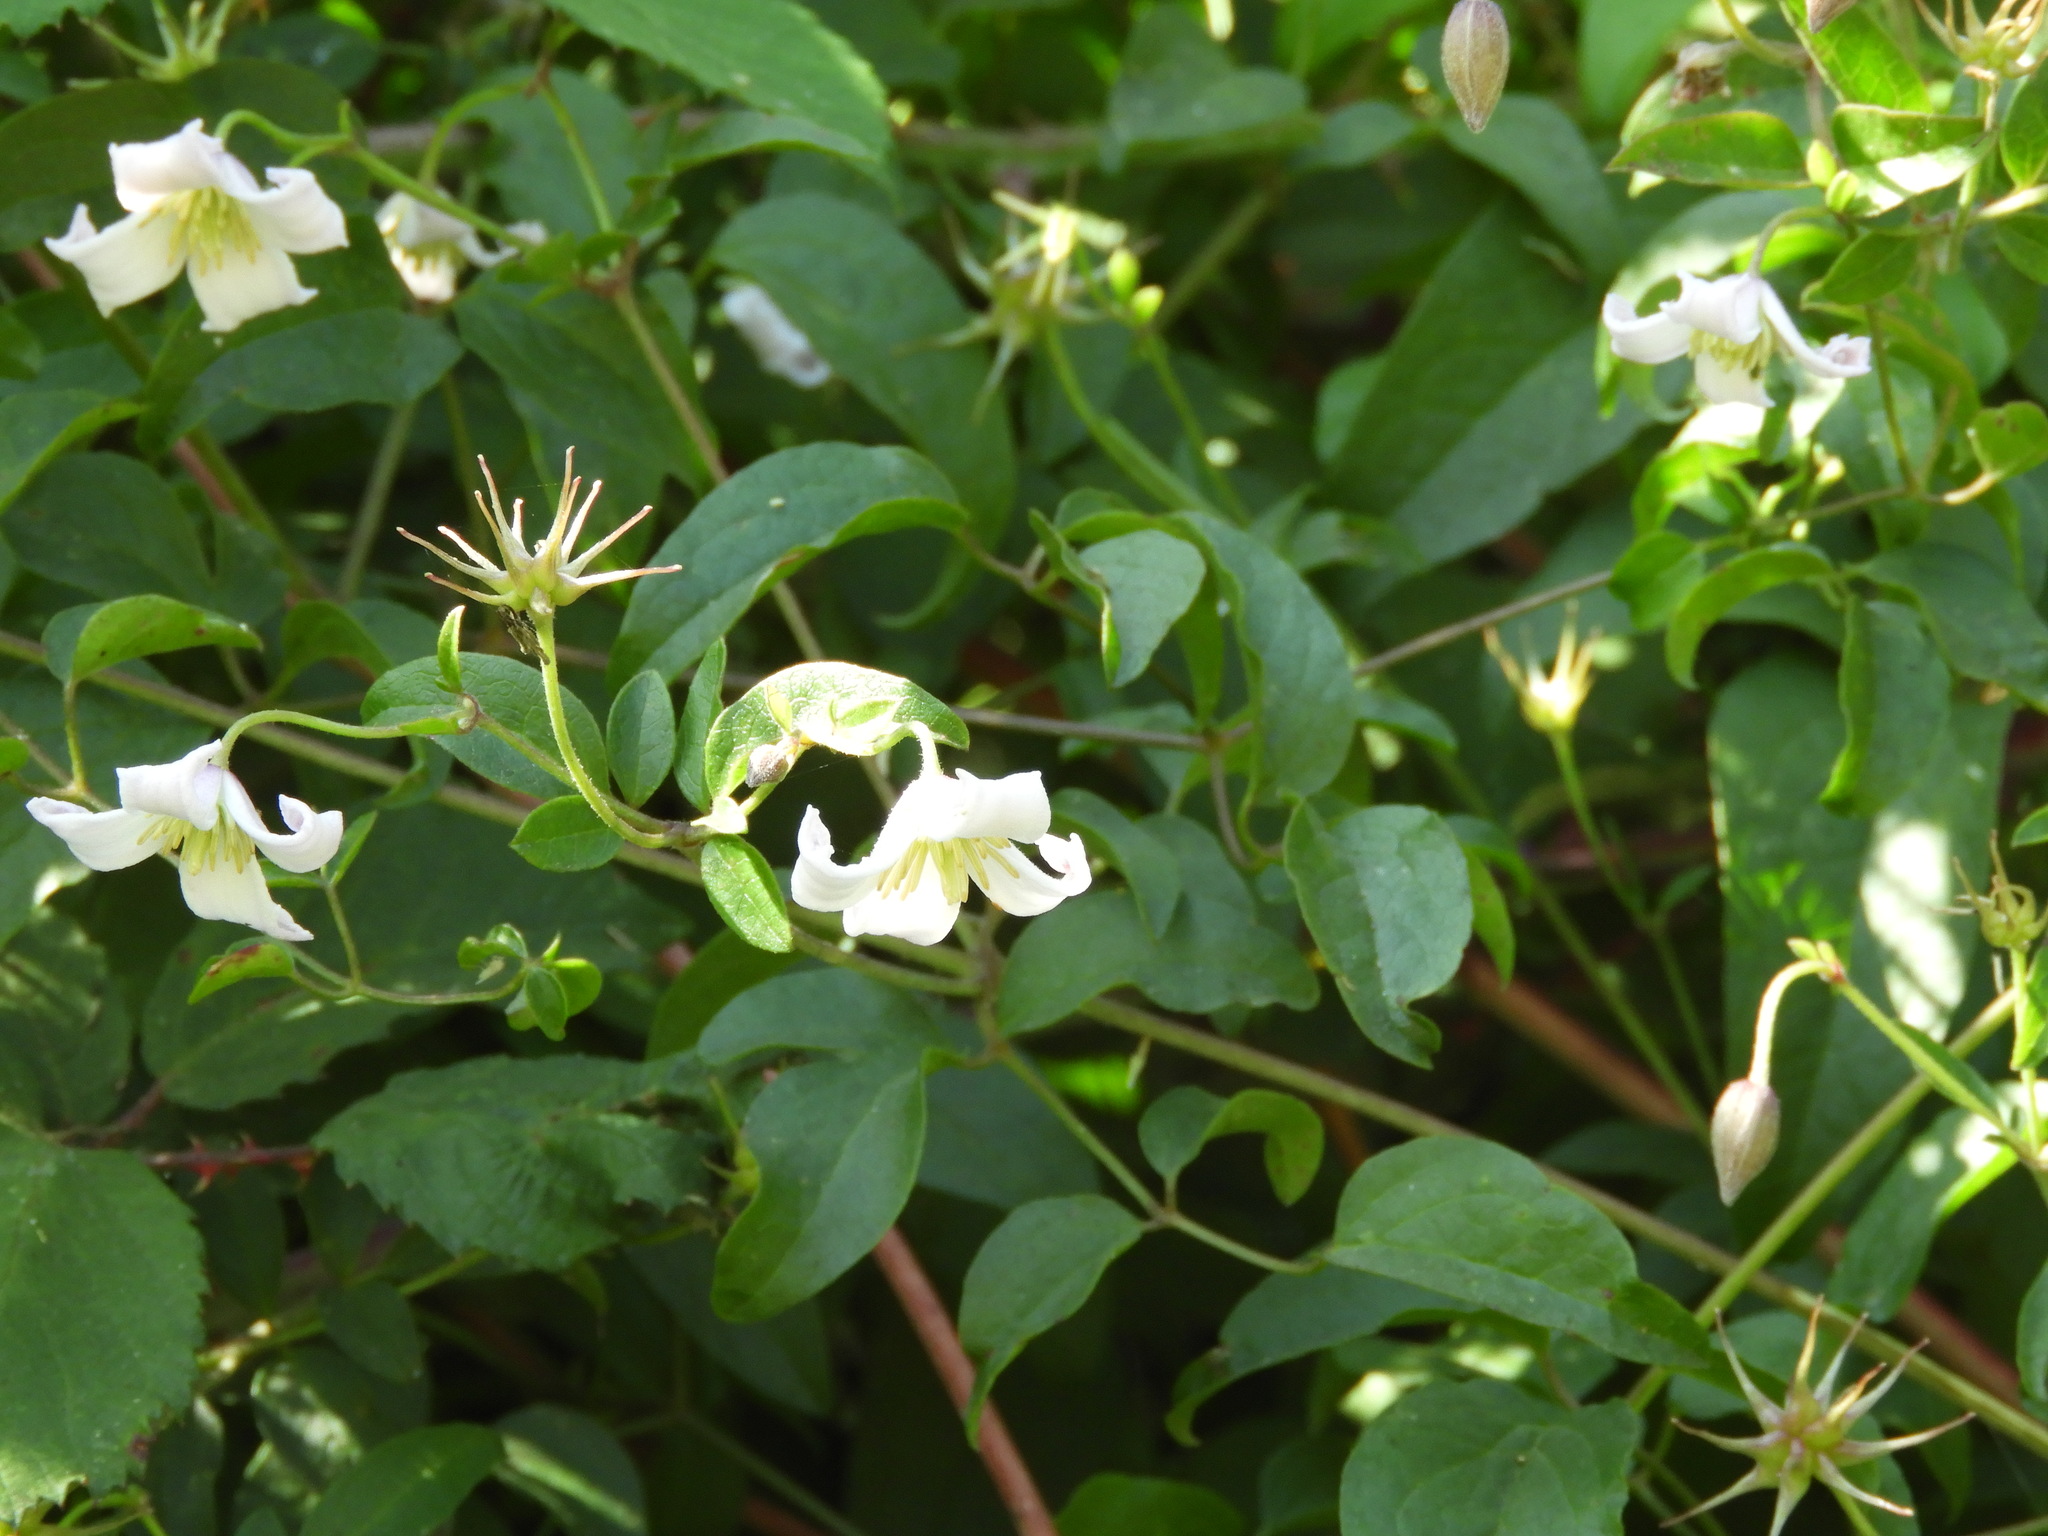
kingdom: Plantae
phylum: Tracheophyta
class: Magnoliopsida
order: Ranunculales
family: Ranunculaceae
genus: Clematis
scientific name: Clematis viticella
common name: Purple clematis
